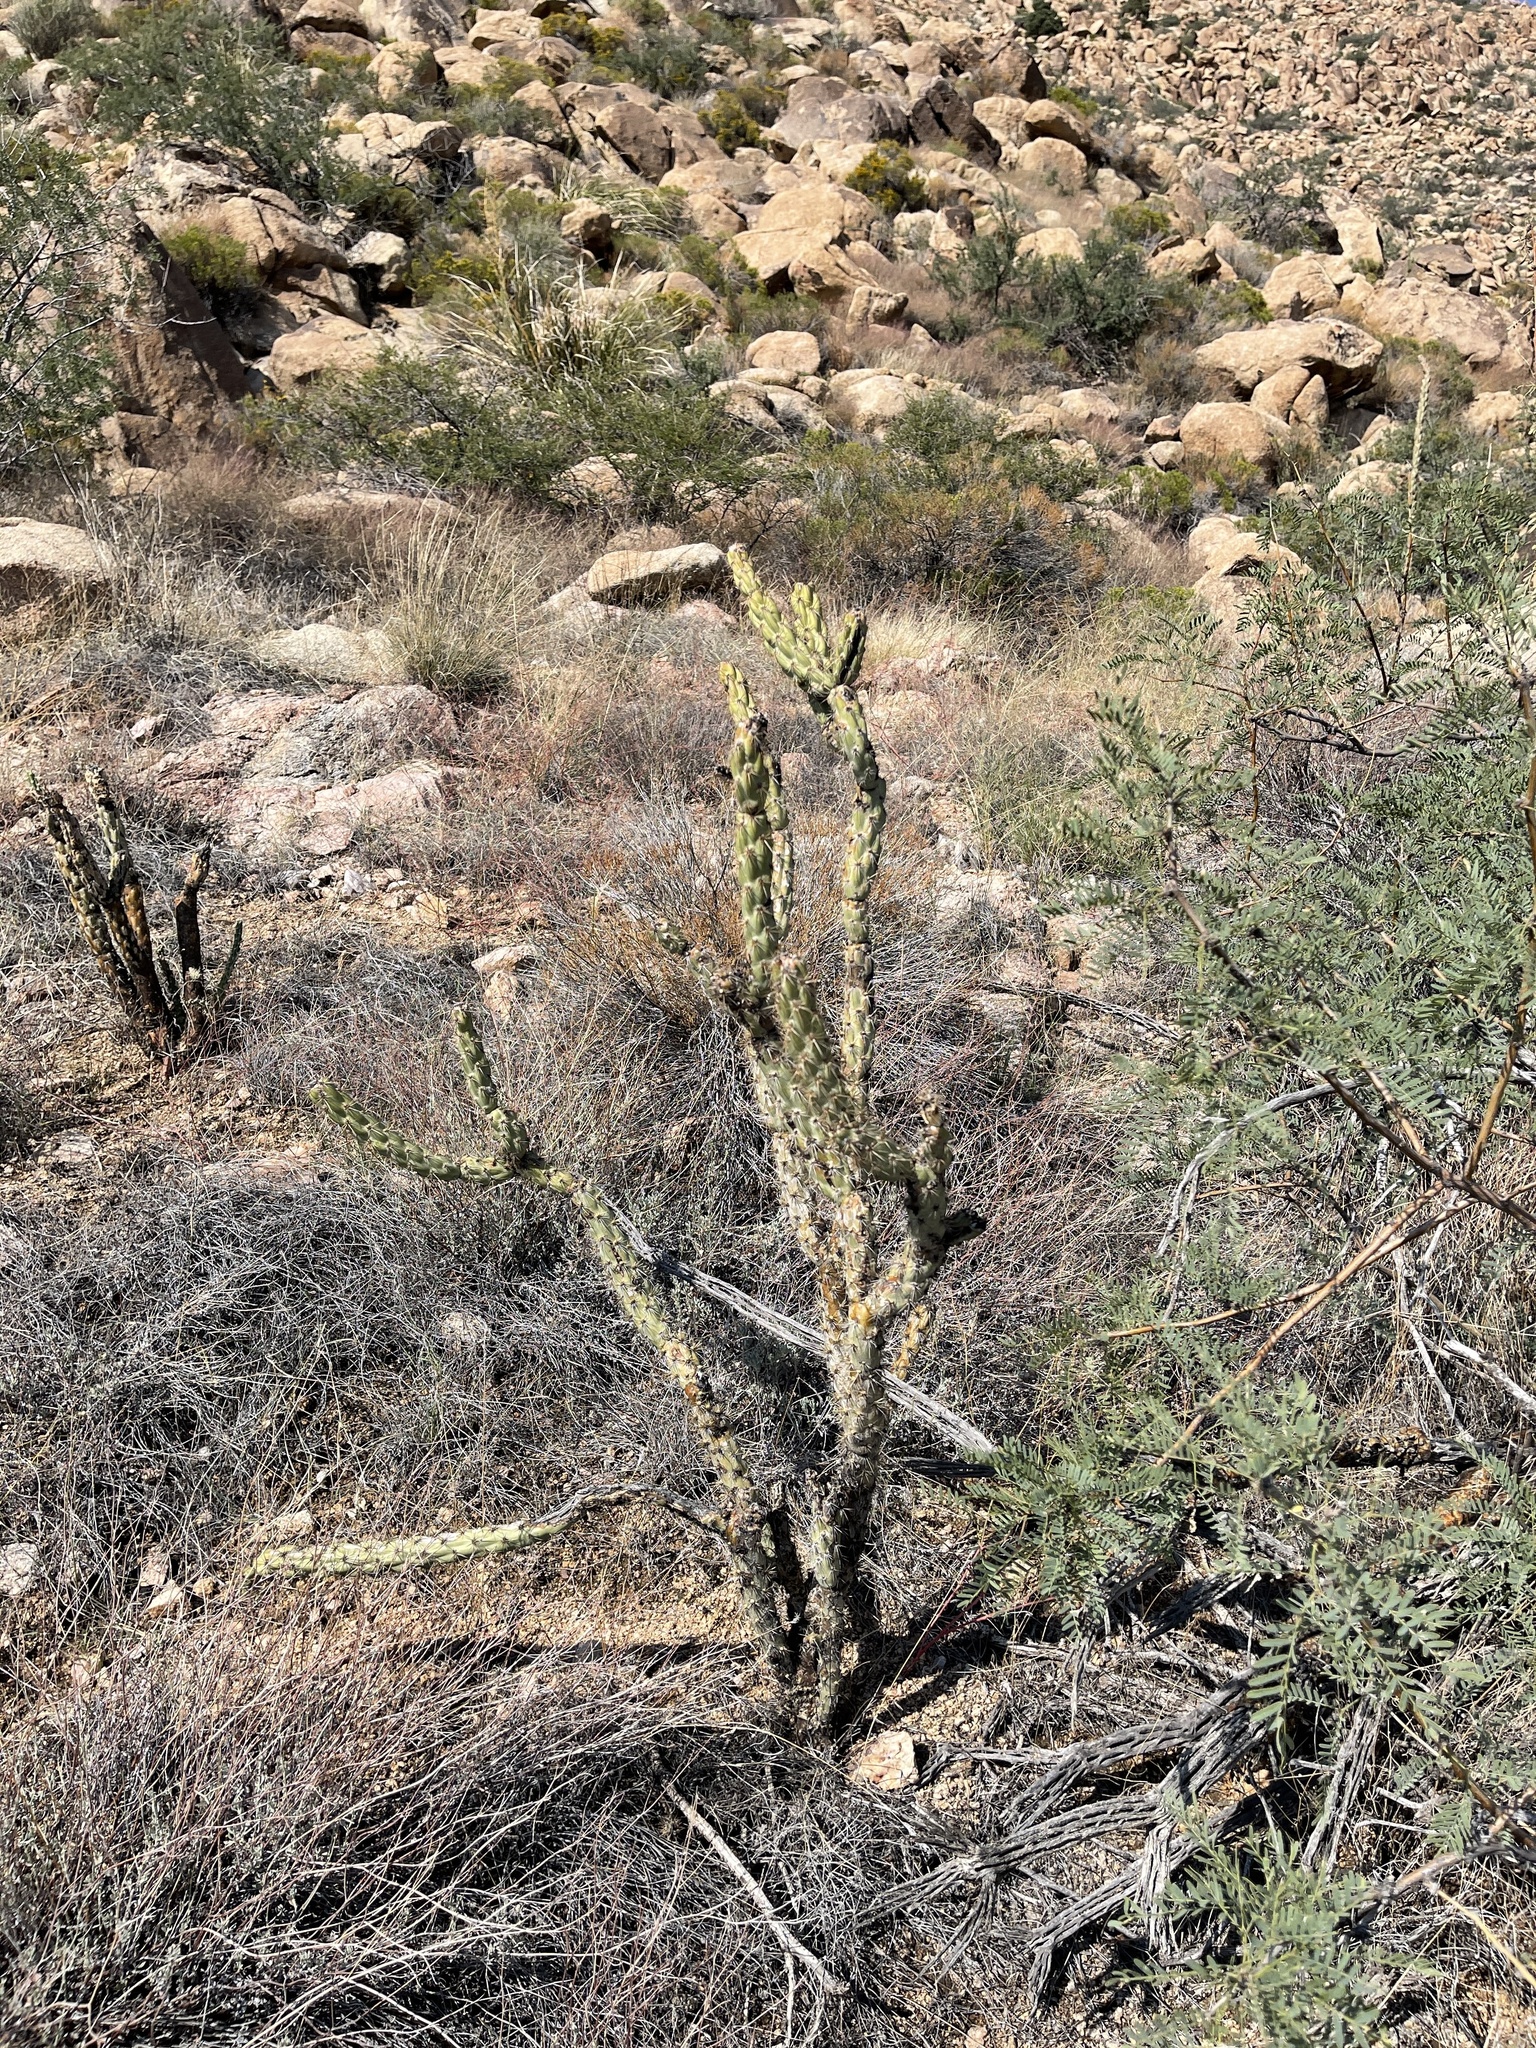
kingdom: Plantae
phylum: Tracheophyta
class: Magnoliopsida
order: Caryophyllales
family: Cactaceae
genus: Cylindropuntia
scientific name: Cylindropuntia acanthocarpa
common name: Buckhorn cholla
